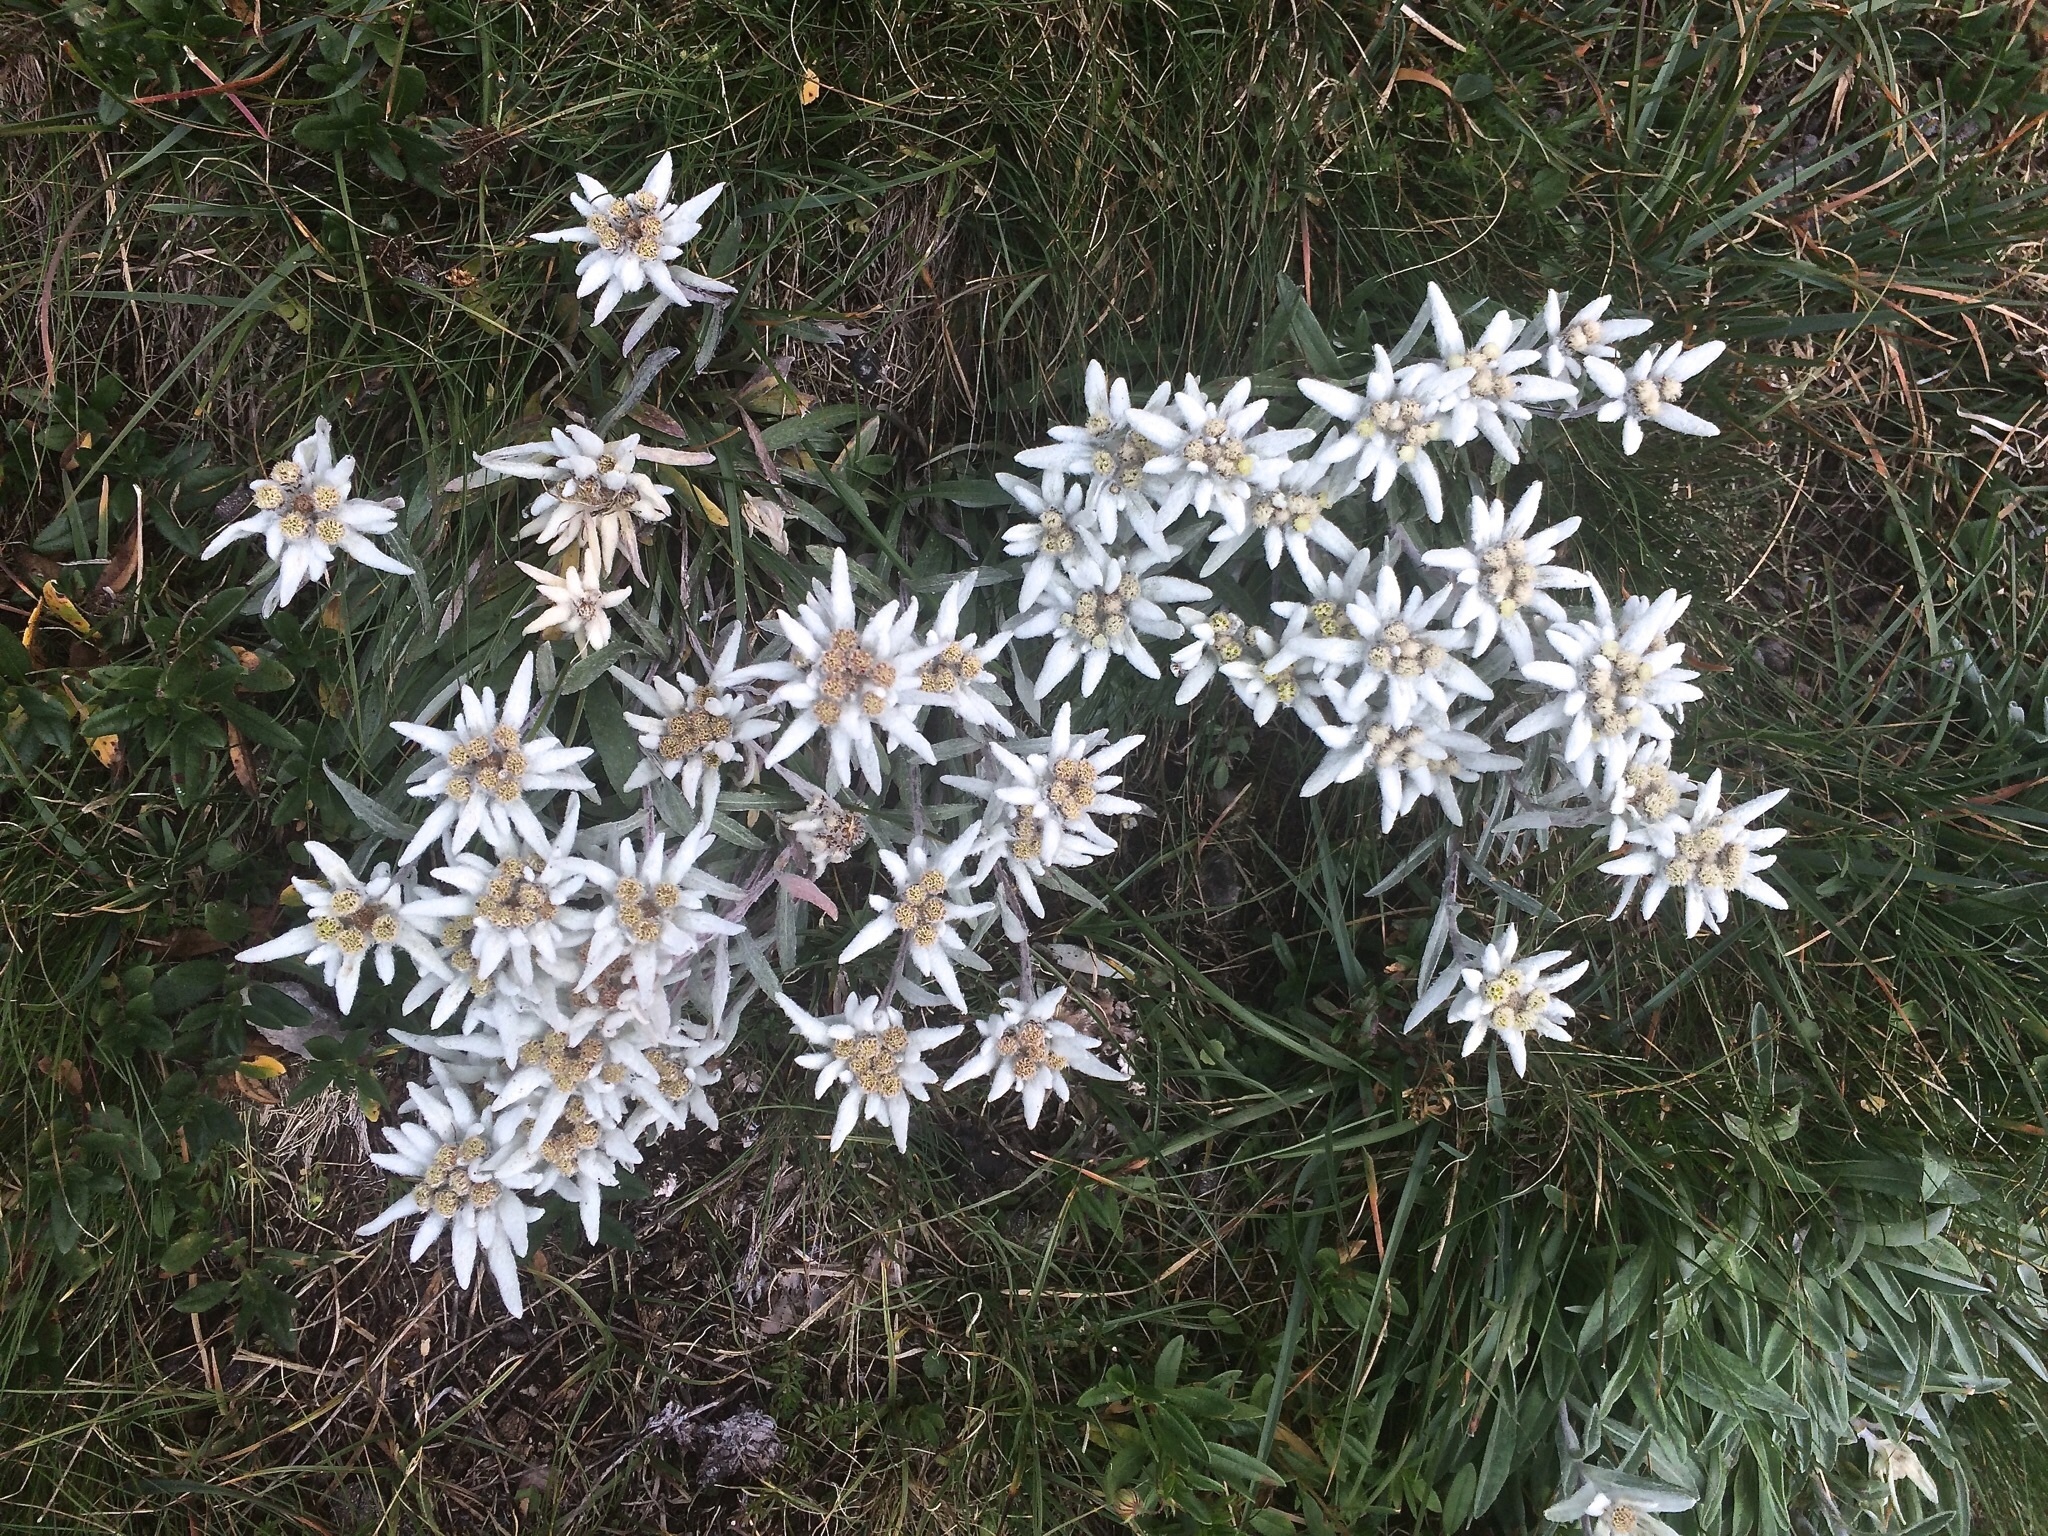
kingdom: Plantae
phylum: Tracheophyta
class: Magnoliopsida
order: Asterales
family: Asteraceae
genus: Leontopodium
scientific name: Leontopodium nivale
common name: Edelweiss
